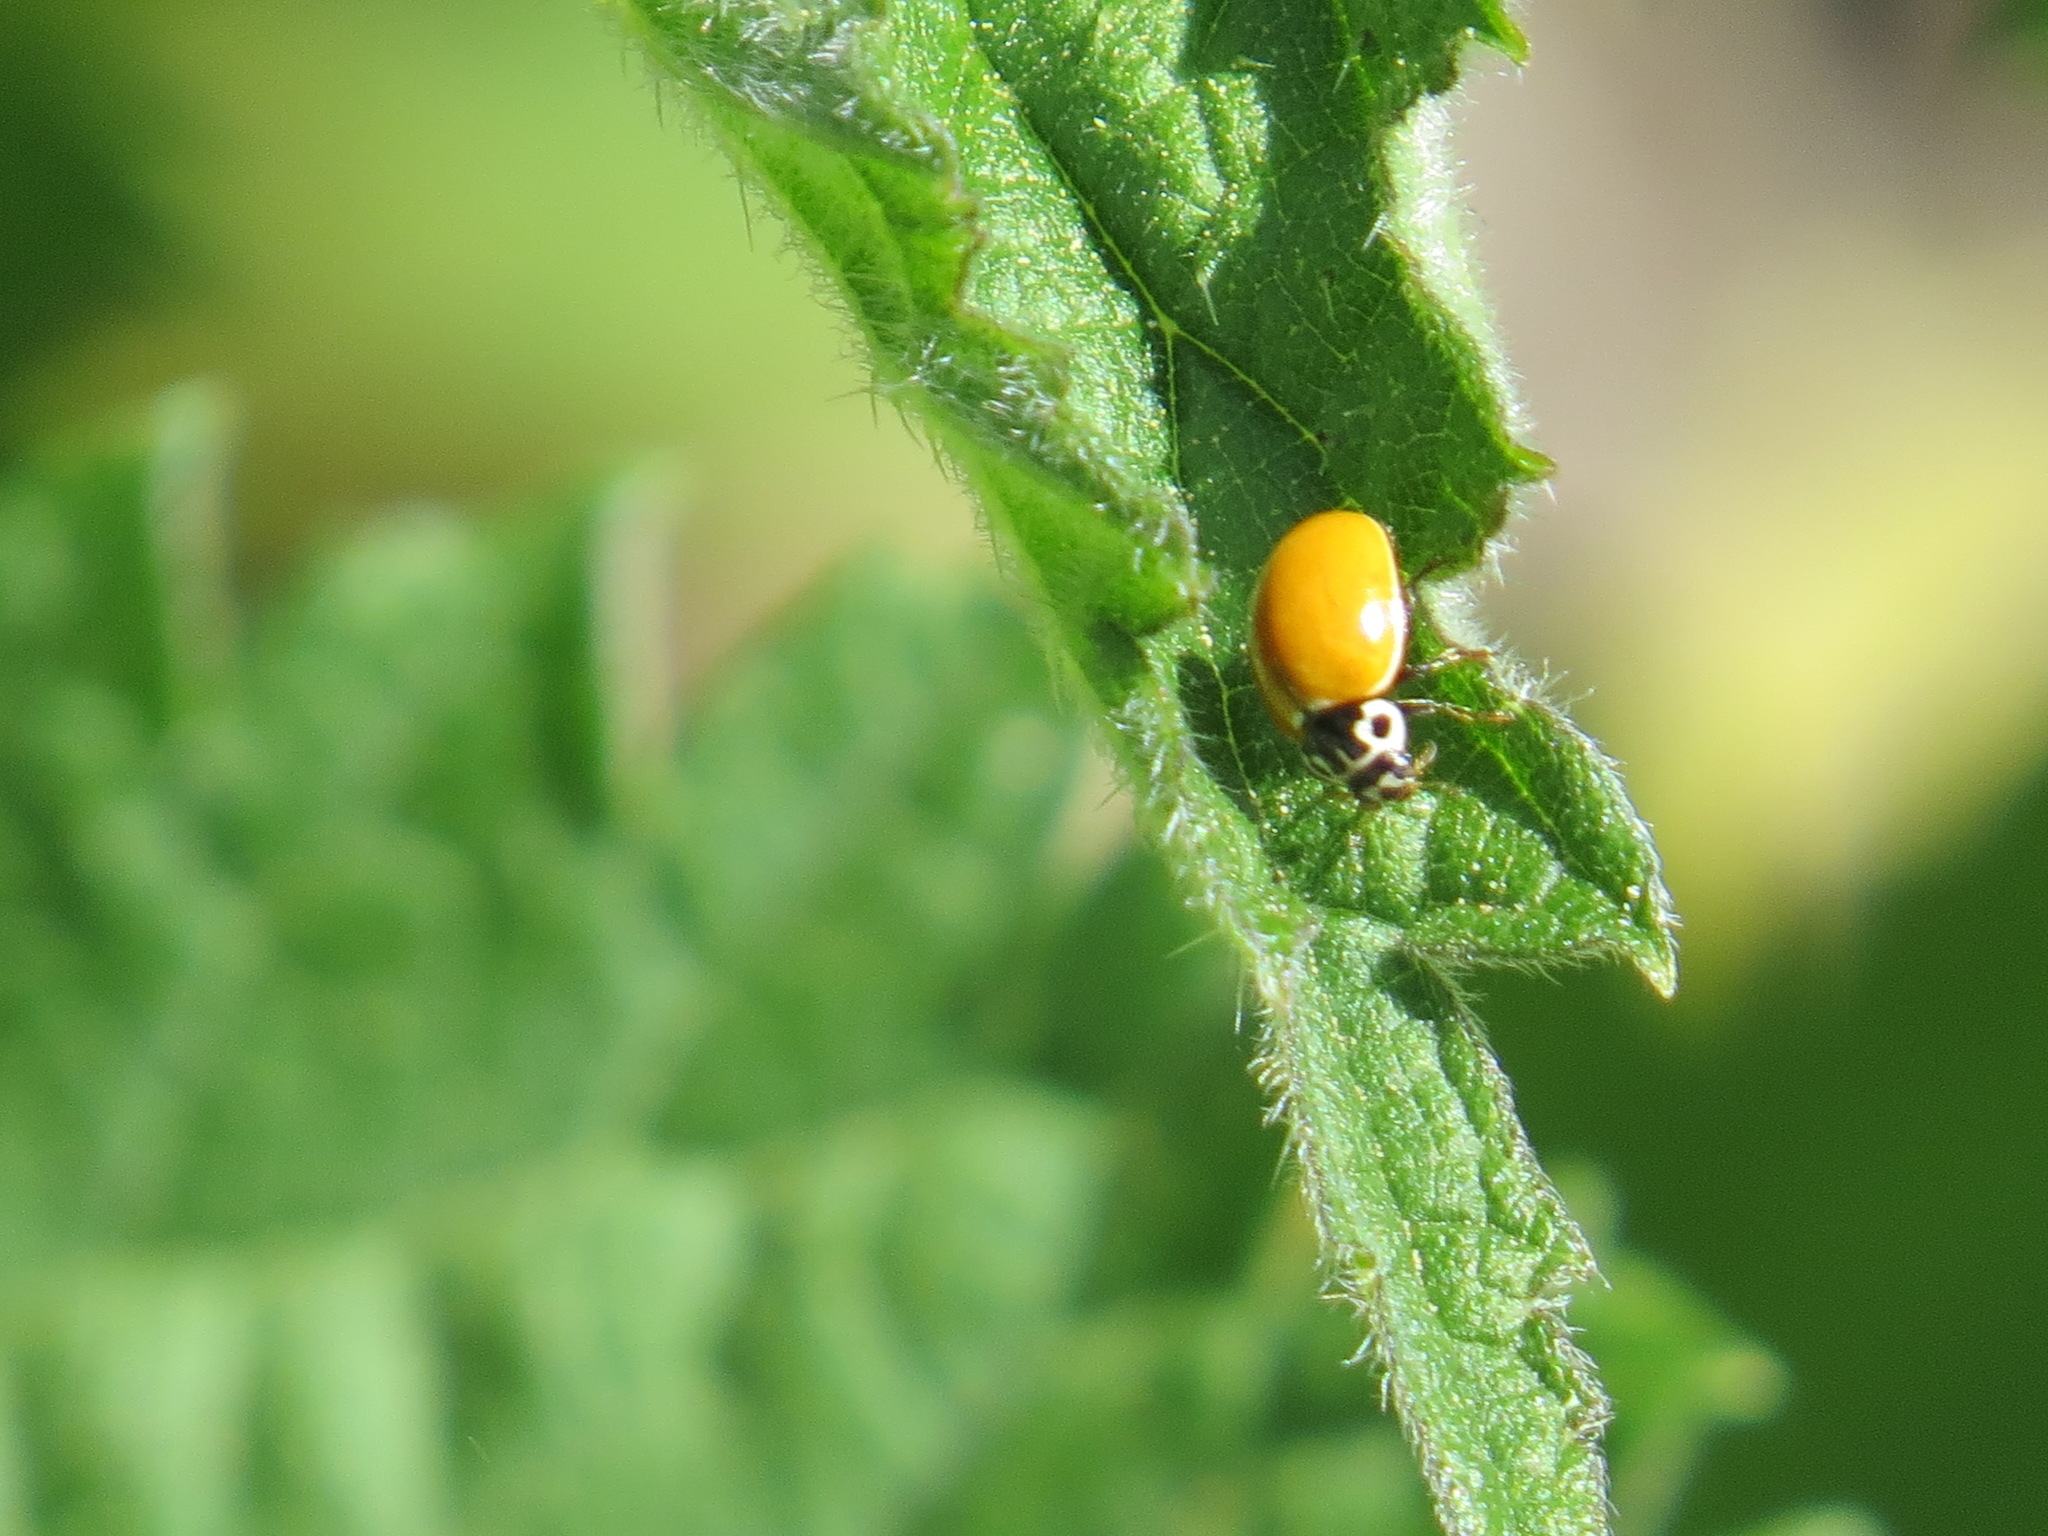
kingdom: Animalia
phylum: Arthropoda
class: Insecta
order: Coleoptera
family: Coccinellidae
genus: Cycloneda
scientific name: Cycloneda polita
